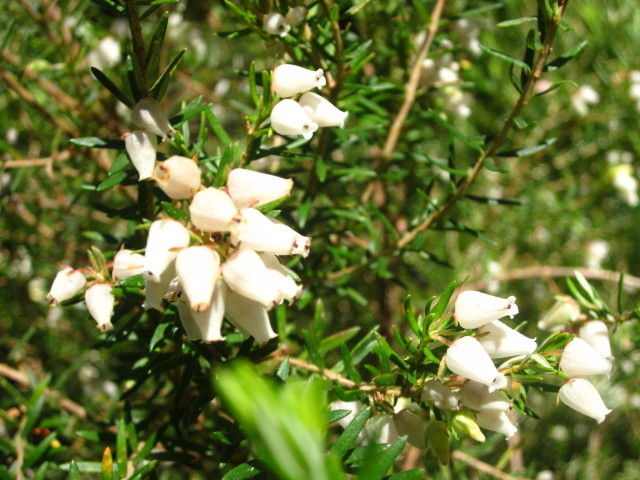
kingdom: Plantae
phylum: Tracheophyta
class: Magnoliopsida
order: Ericales
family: Ericaceae
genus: Erica
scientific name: Erica caffra
